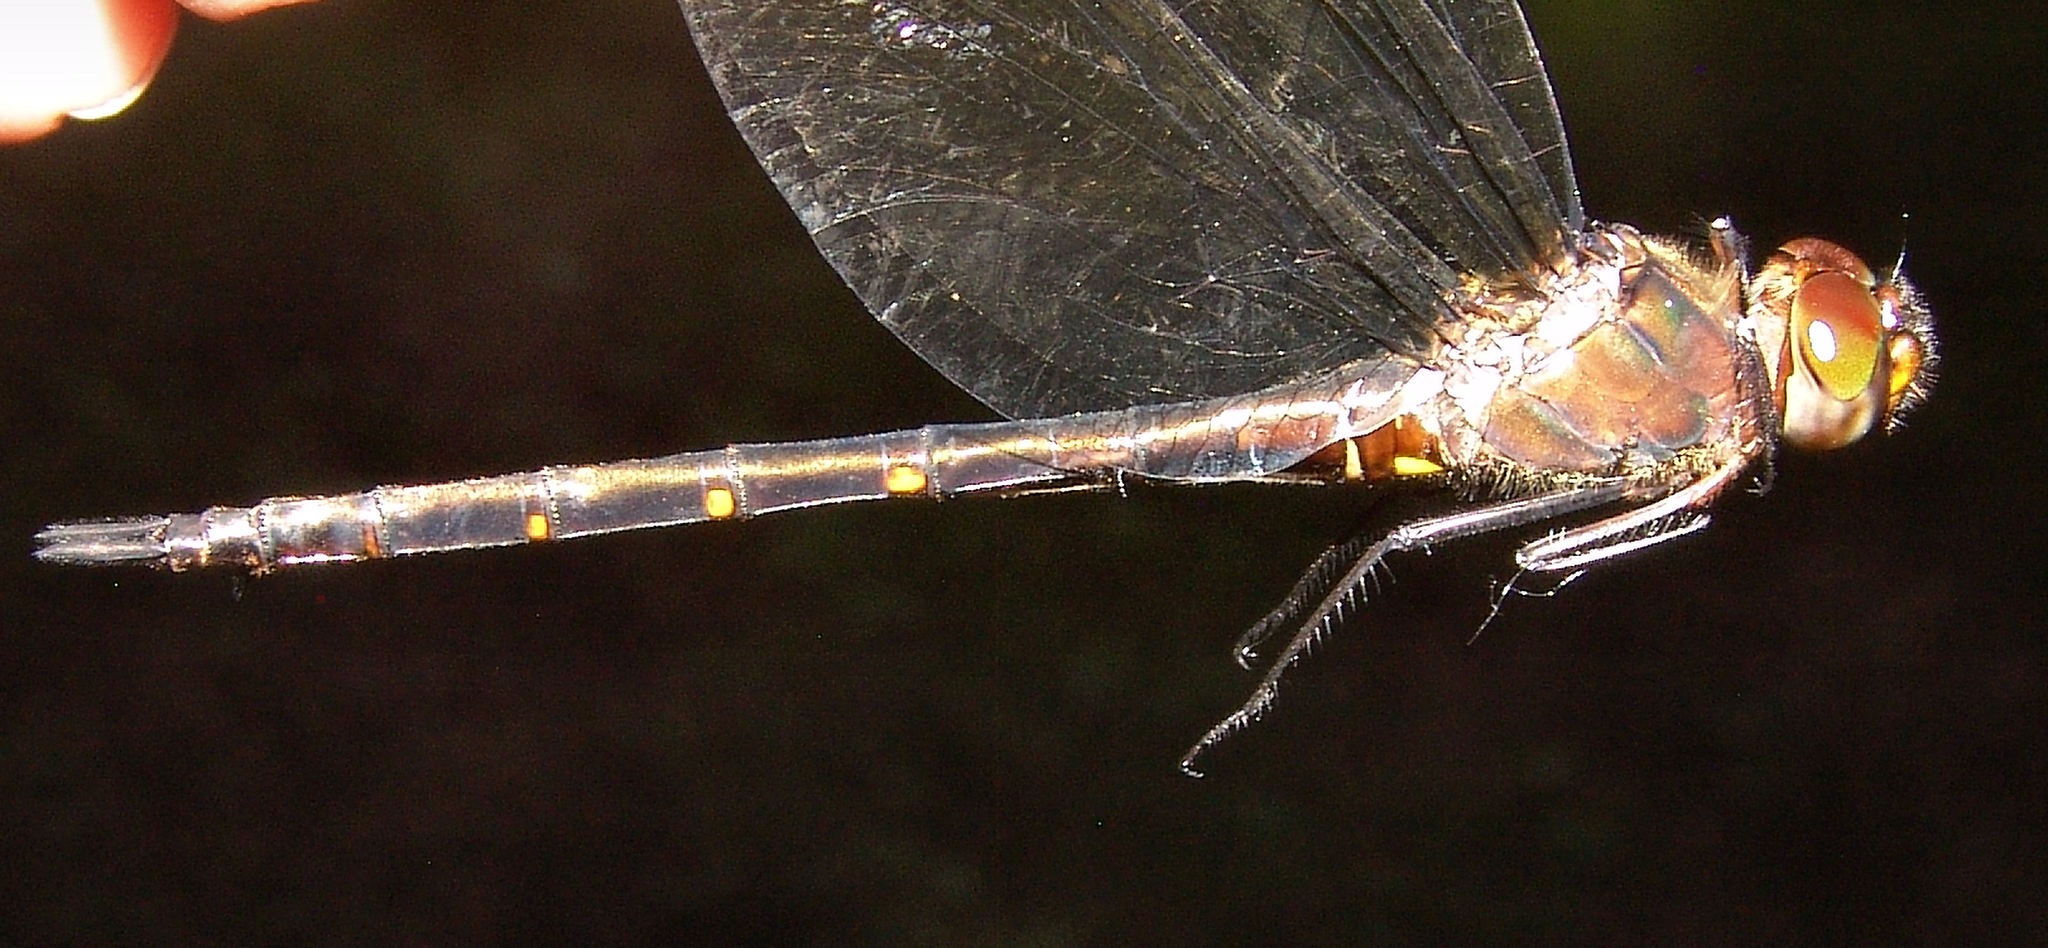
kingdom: Animalia
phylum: Arthropoda
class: Insecta
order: Odonata
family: Corduliidae
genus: Somatochlora
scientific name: Somatochlora linearis
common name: Mocha emerald
